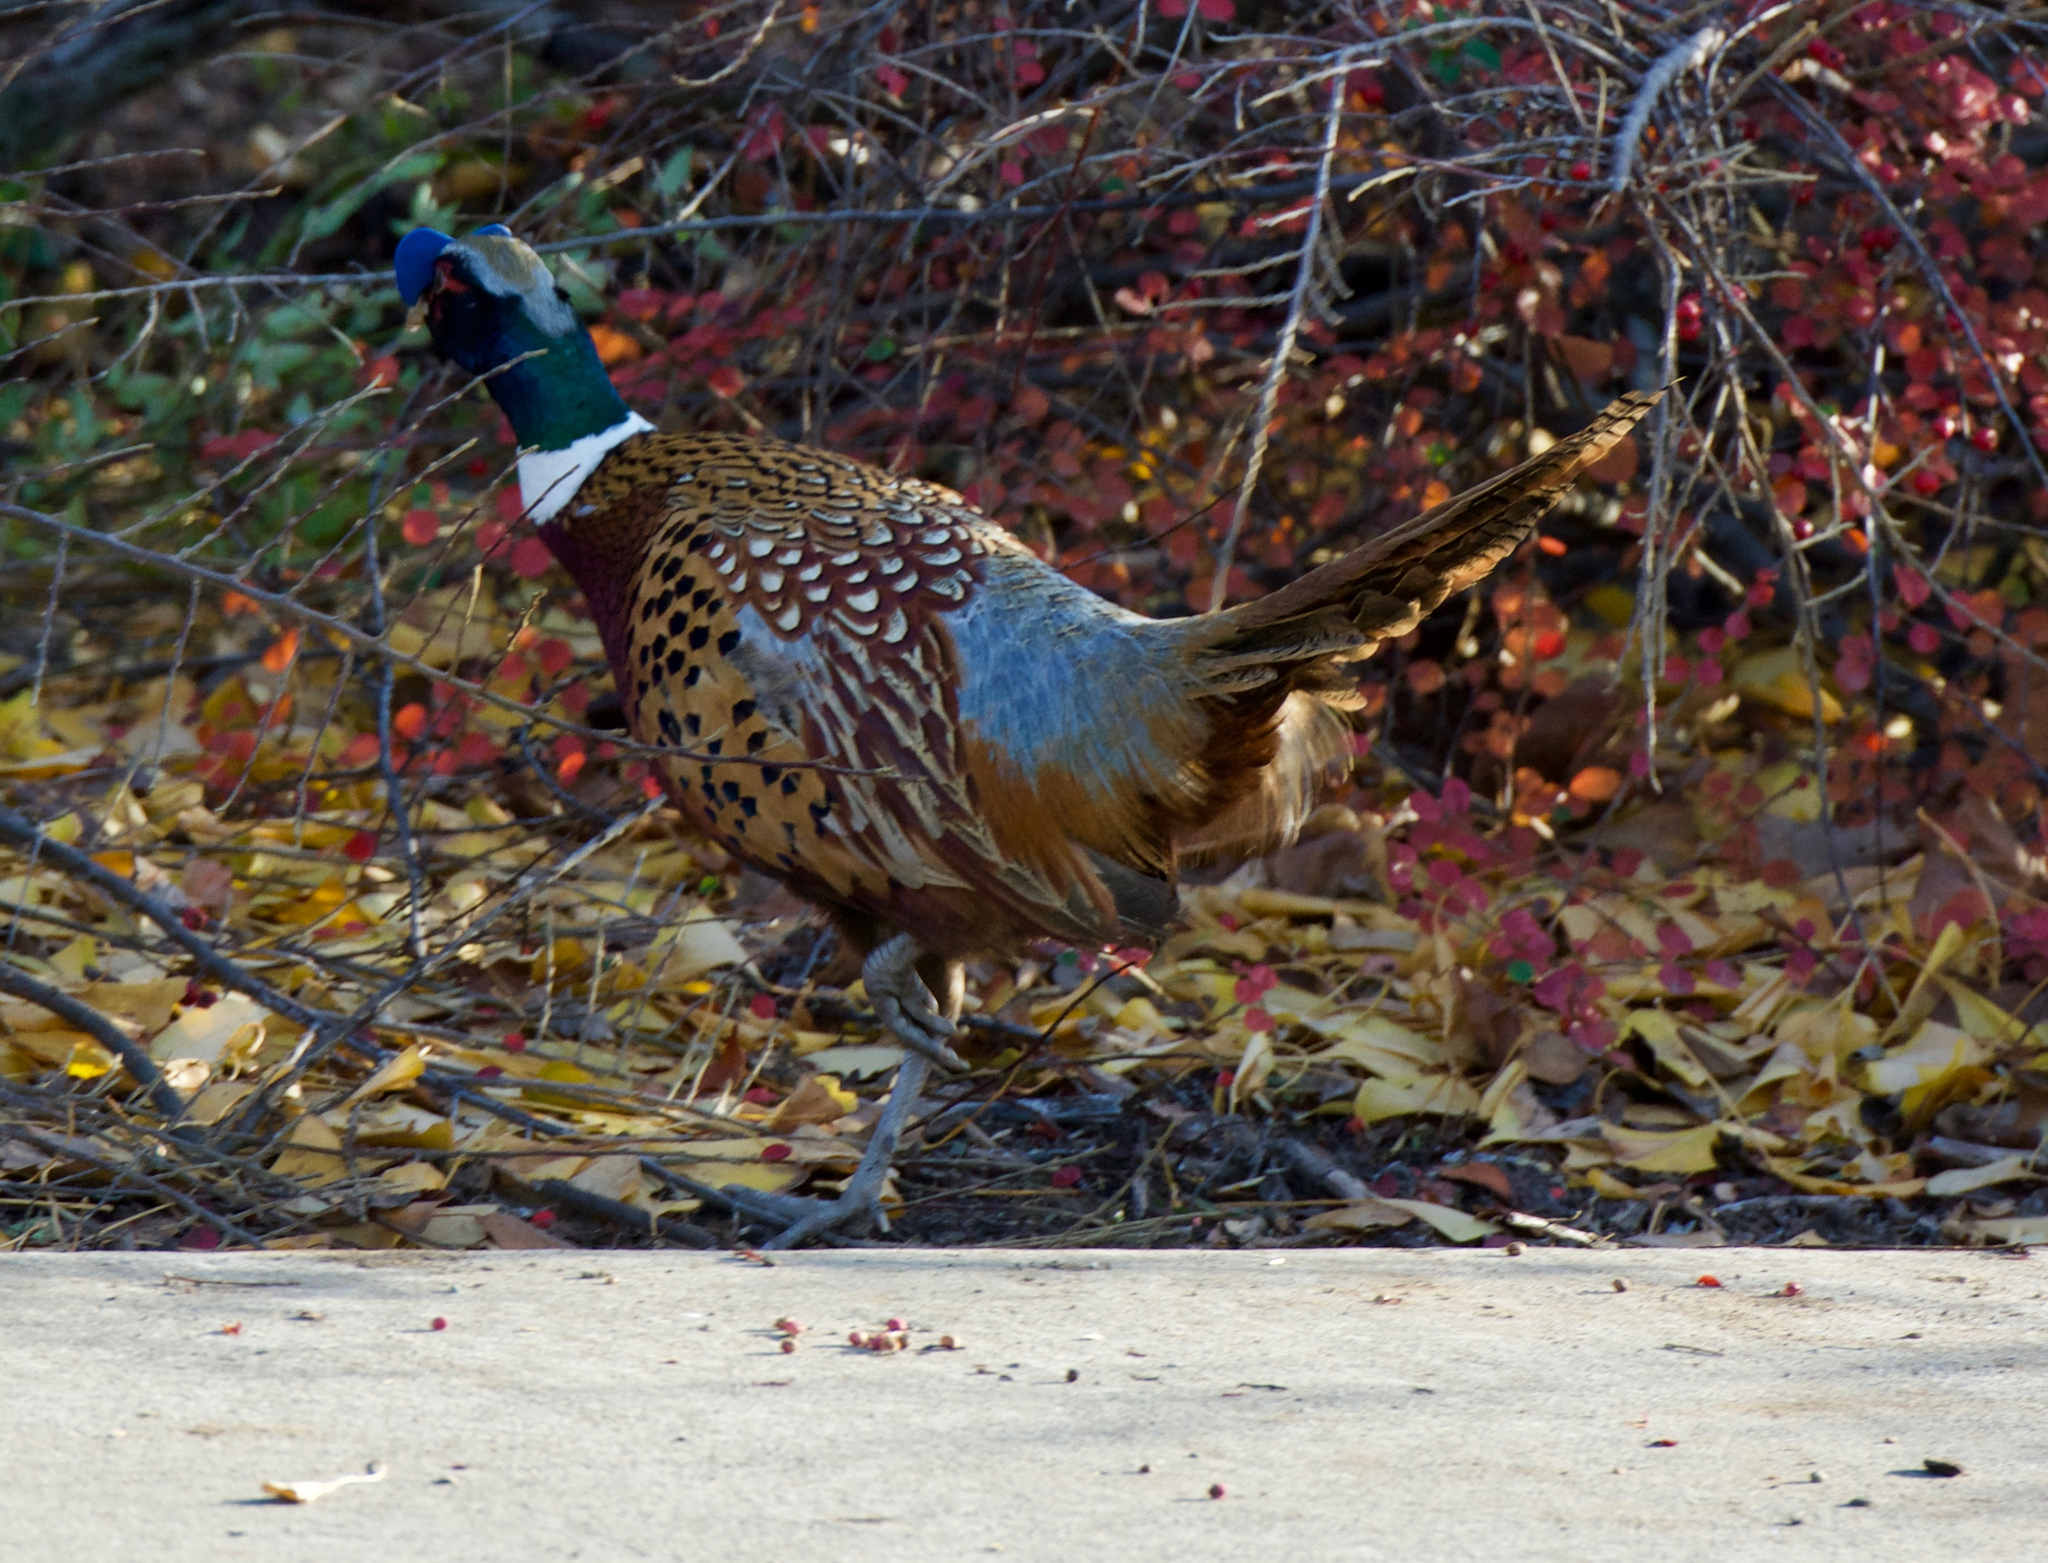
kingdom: Animalia
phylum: Chordata
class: Aves
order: Galliformes
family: Phasianidae
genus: Phasianus
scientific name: Phasianus colchicus
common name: Common pheasant
